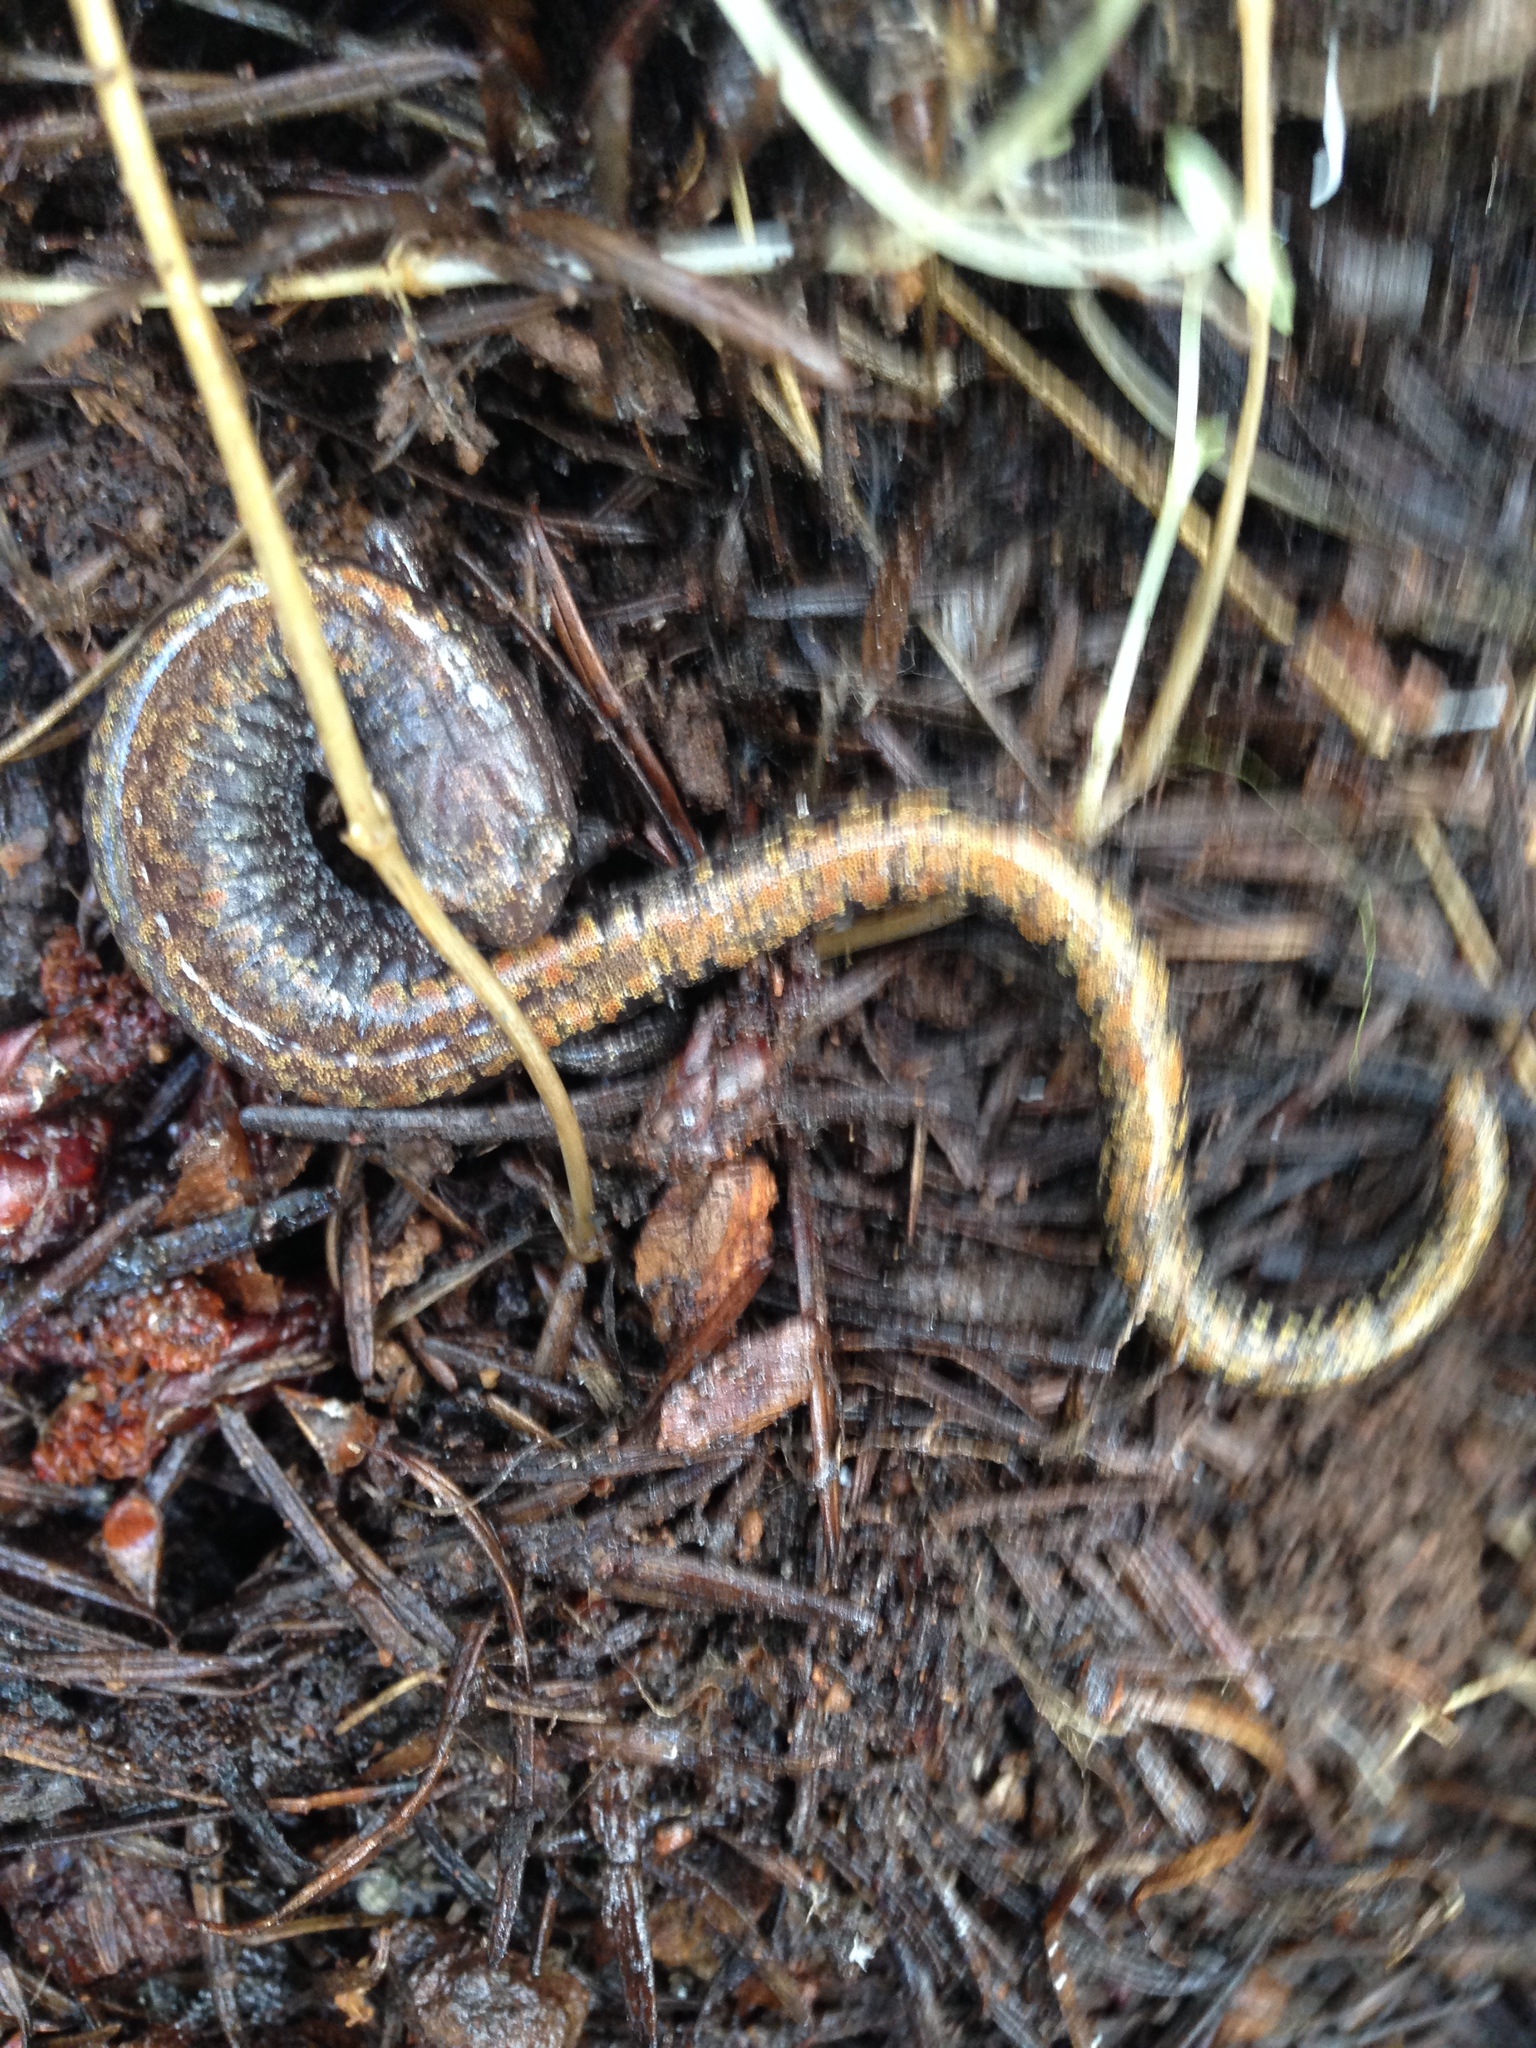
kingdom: Animalia
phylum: Chordata
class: Amphibia
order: Caudata
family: Plethodontidae
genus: Batrachoseps
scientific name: Batrachoseps wrighti
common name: Oregon slender salamander
